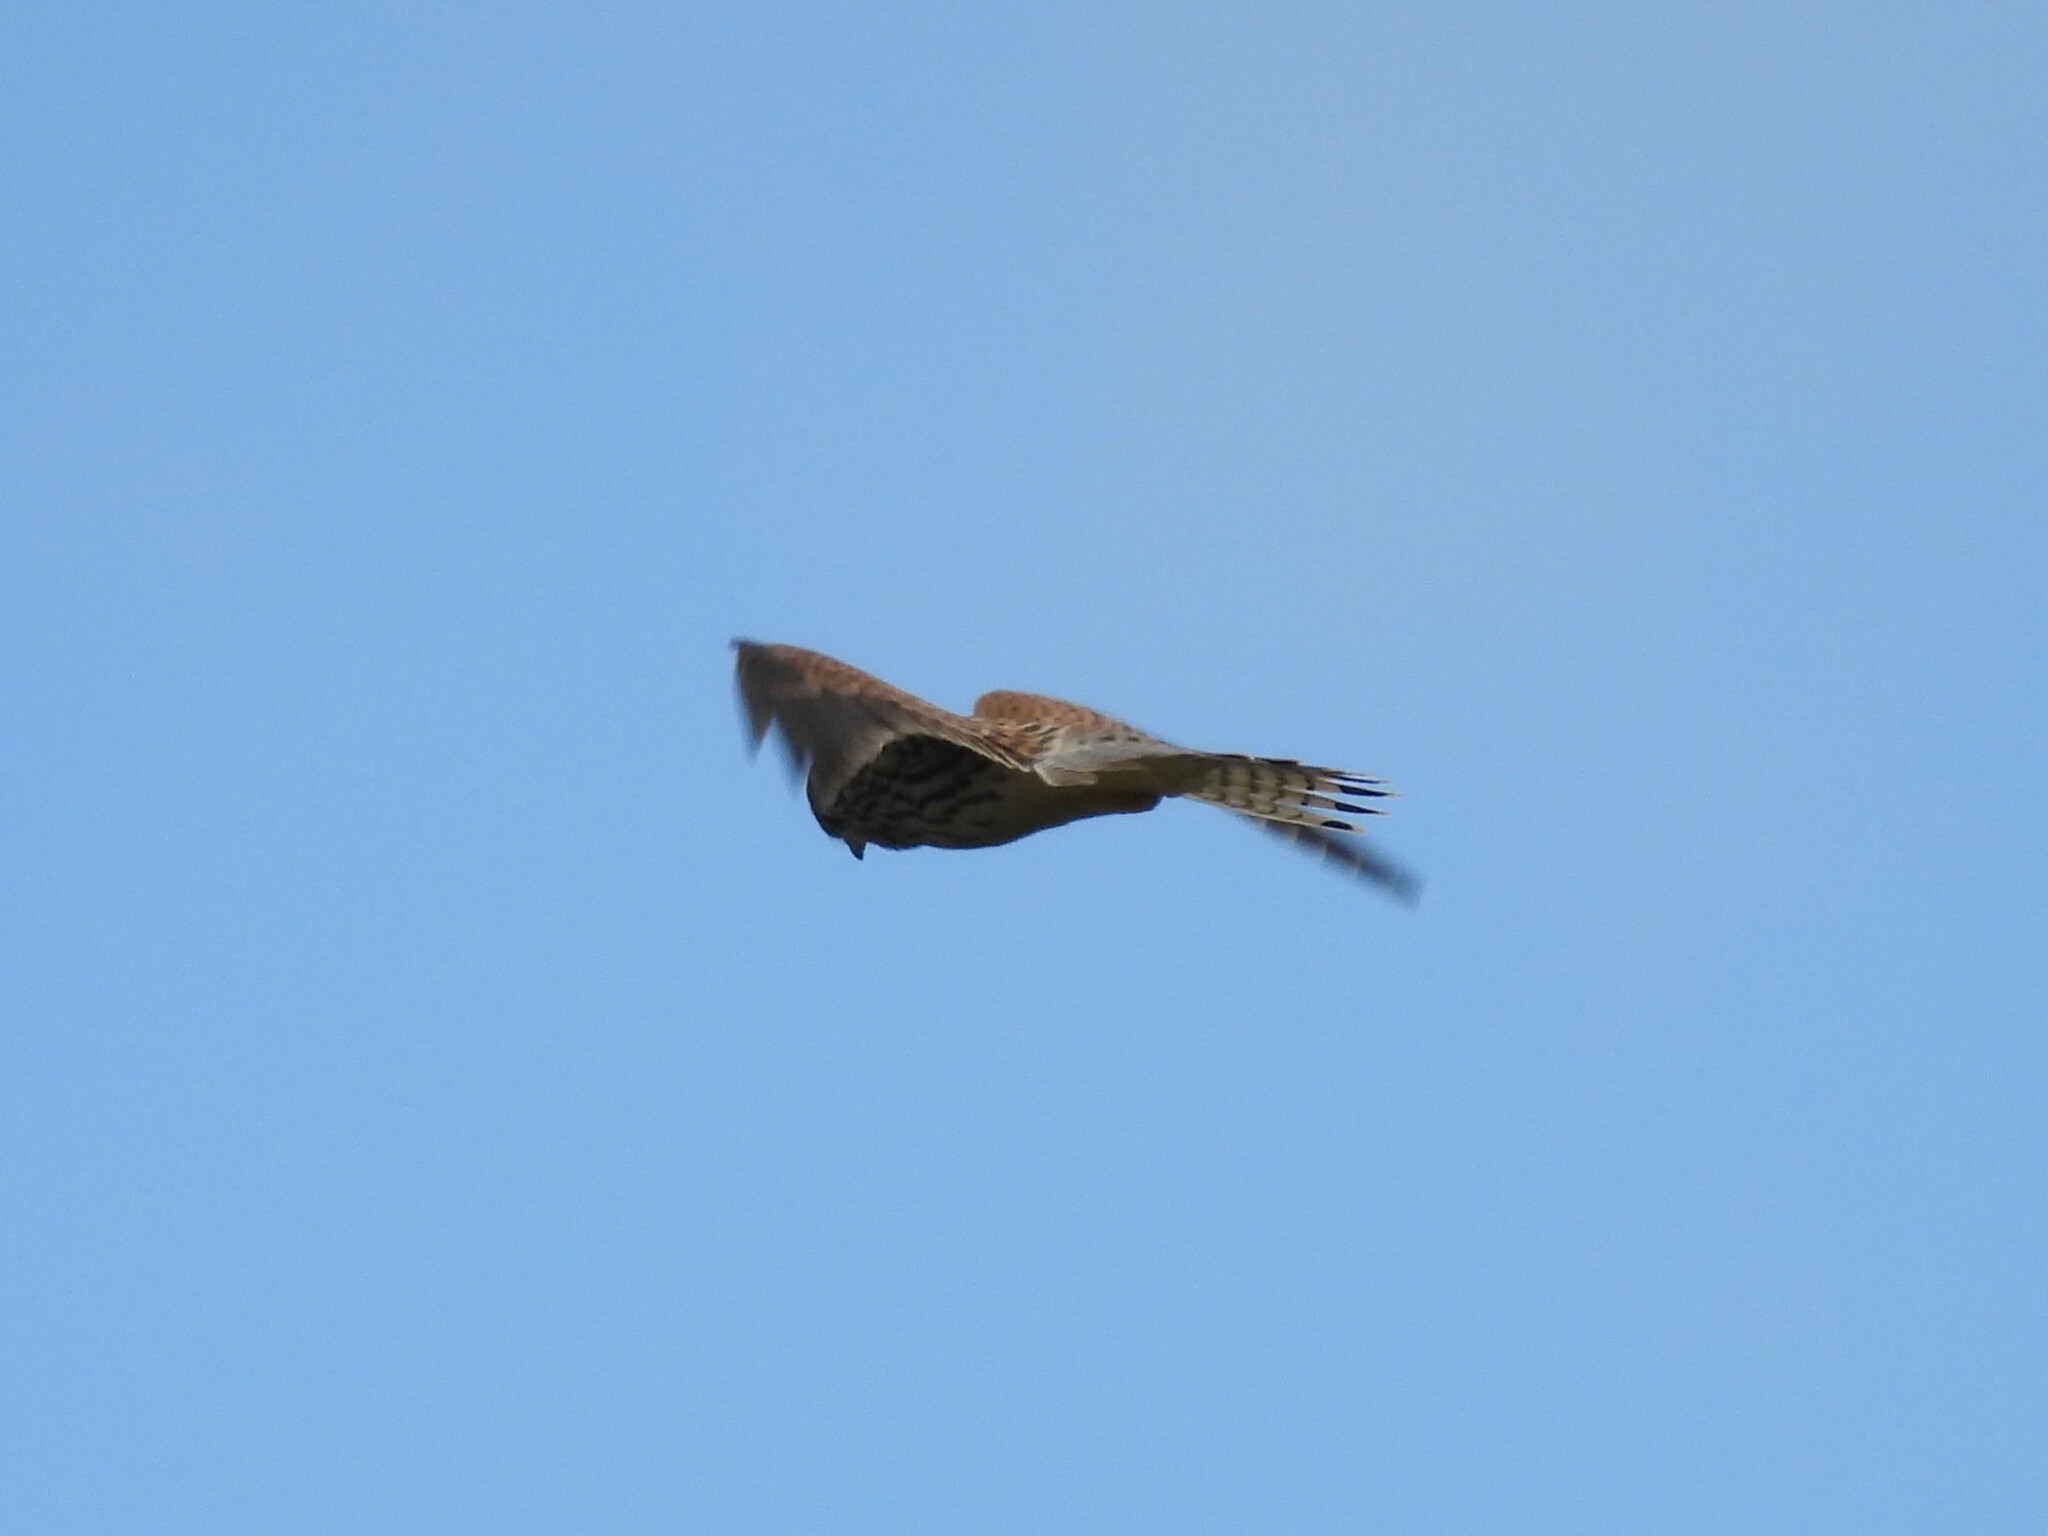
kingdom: Animalia
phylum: Chordata
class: Aves
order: Falconiformes
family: Falconidae
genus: Falco
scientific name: Falco tinnunculus
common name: Common kestrel
